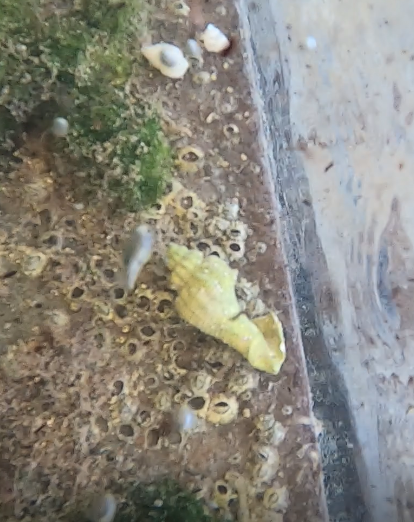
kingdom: Animalia
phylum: Arthropoda
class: Maxillopoda
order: Sessilia
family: Chthamalidae
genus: Chthamalus
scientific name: Chthamalus fragilis
